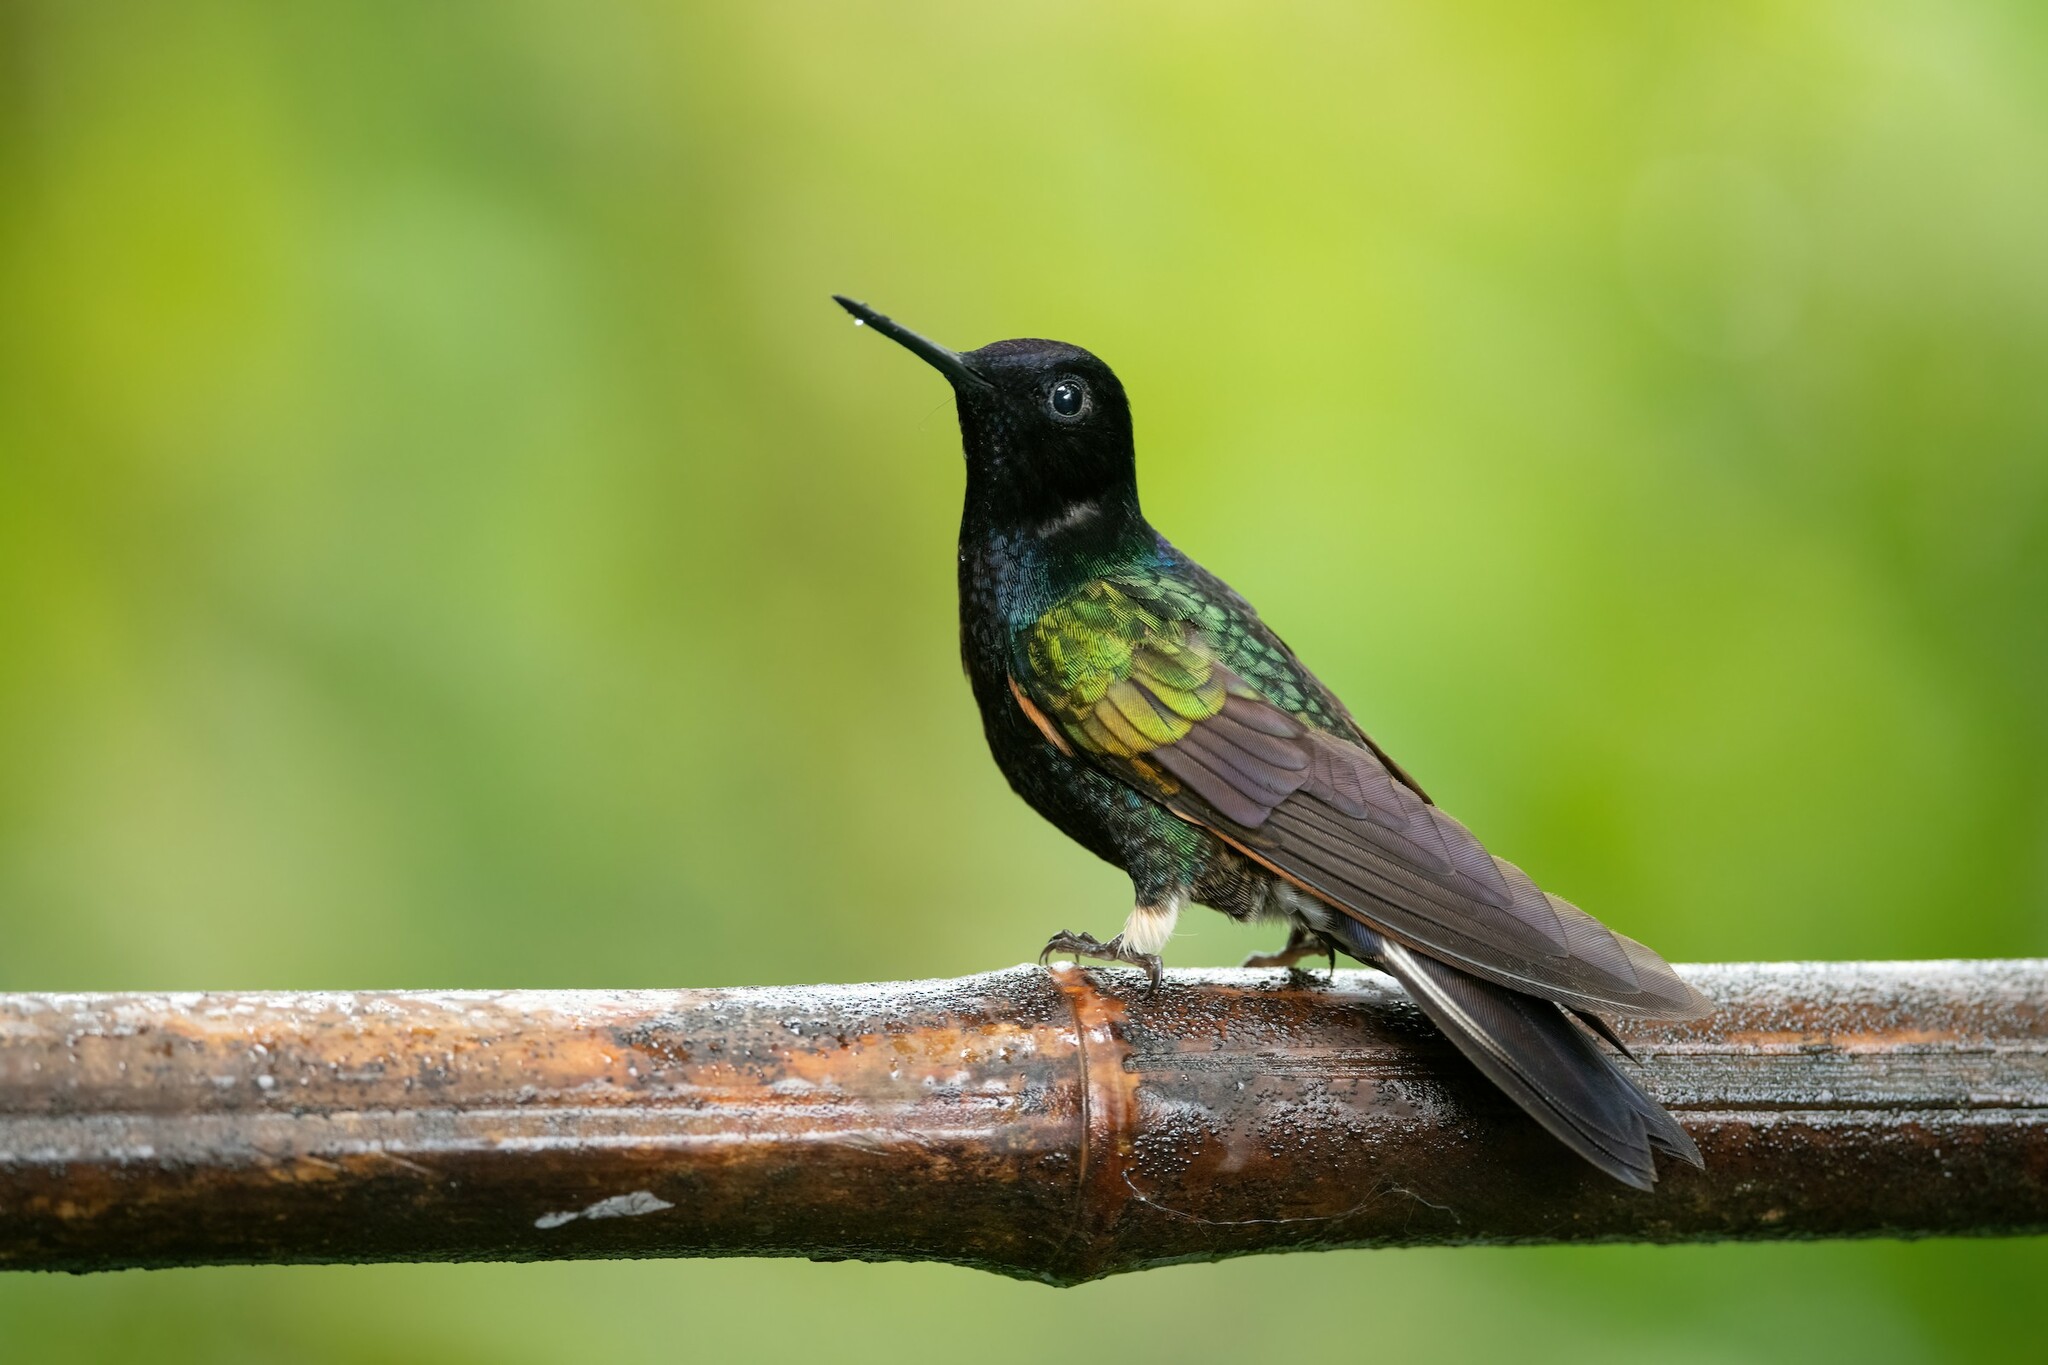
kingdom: Animalia
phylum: Chordata
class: Aves
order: Apodiformes
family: Trochilidae
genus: Boissonneaua
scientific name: Boissonneaua jardini
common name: Velvet-purple coronet
